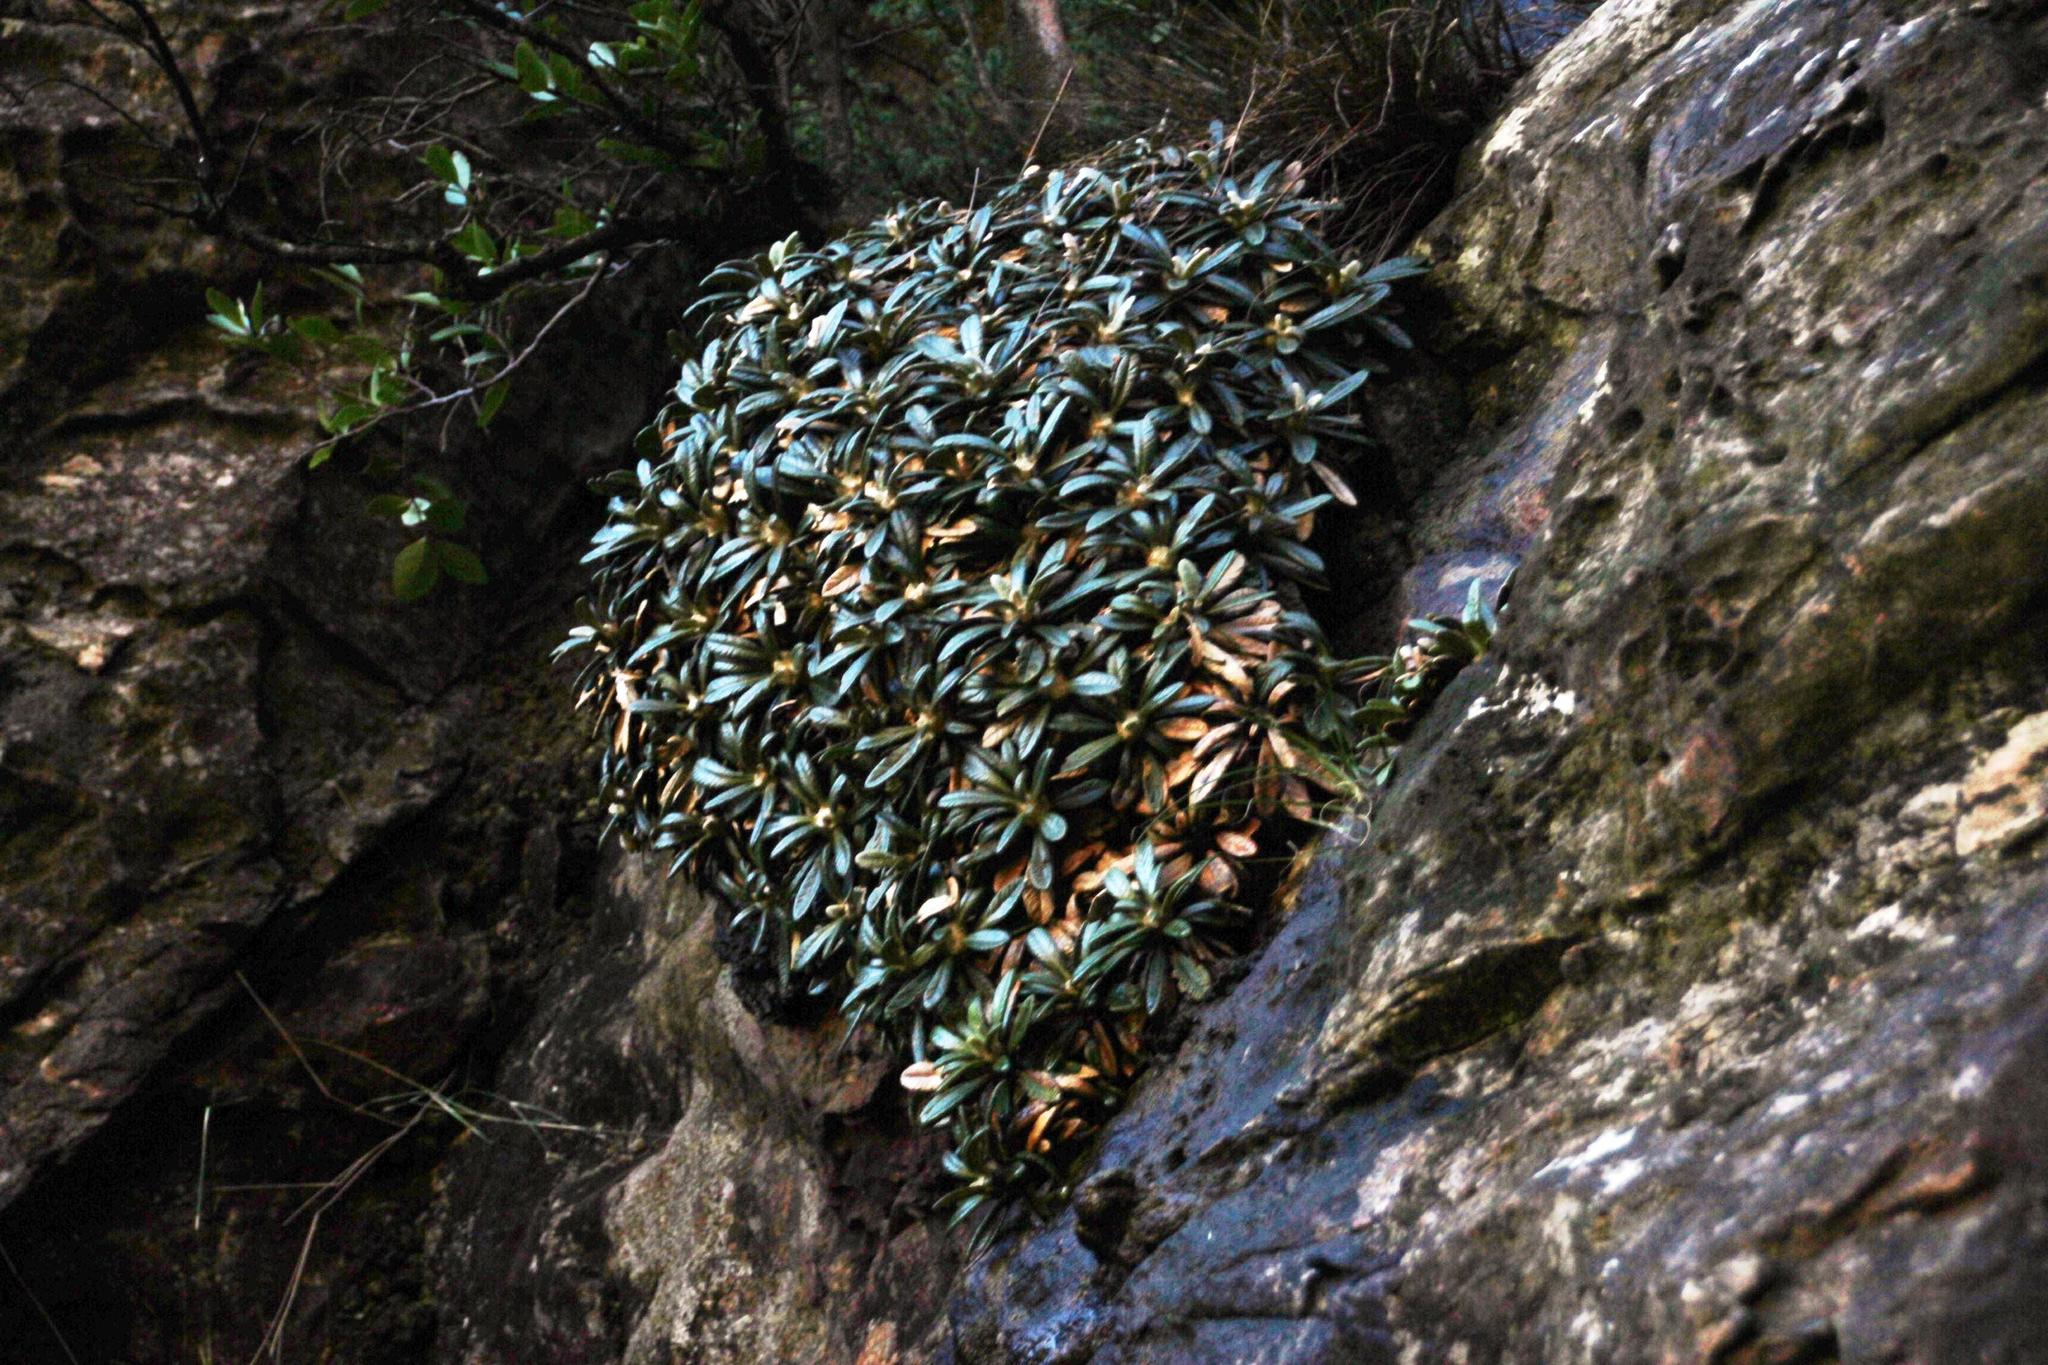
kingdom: Plantae
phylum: Tracheophyta
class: Magnoliopsida
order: Asterales
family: Asteraceae
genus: Oldenburgia
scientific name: Oldenburgia intermedia
